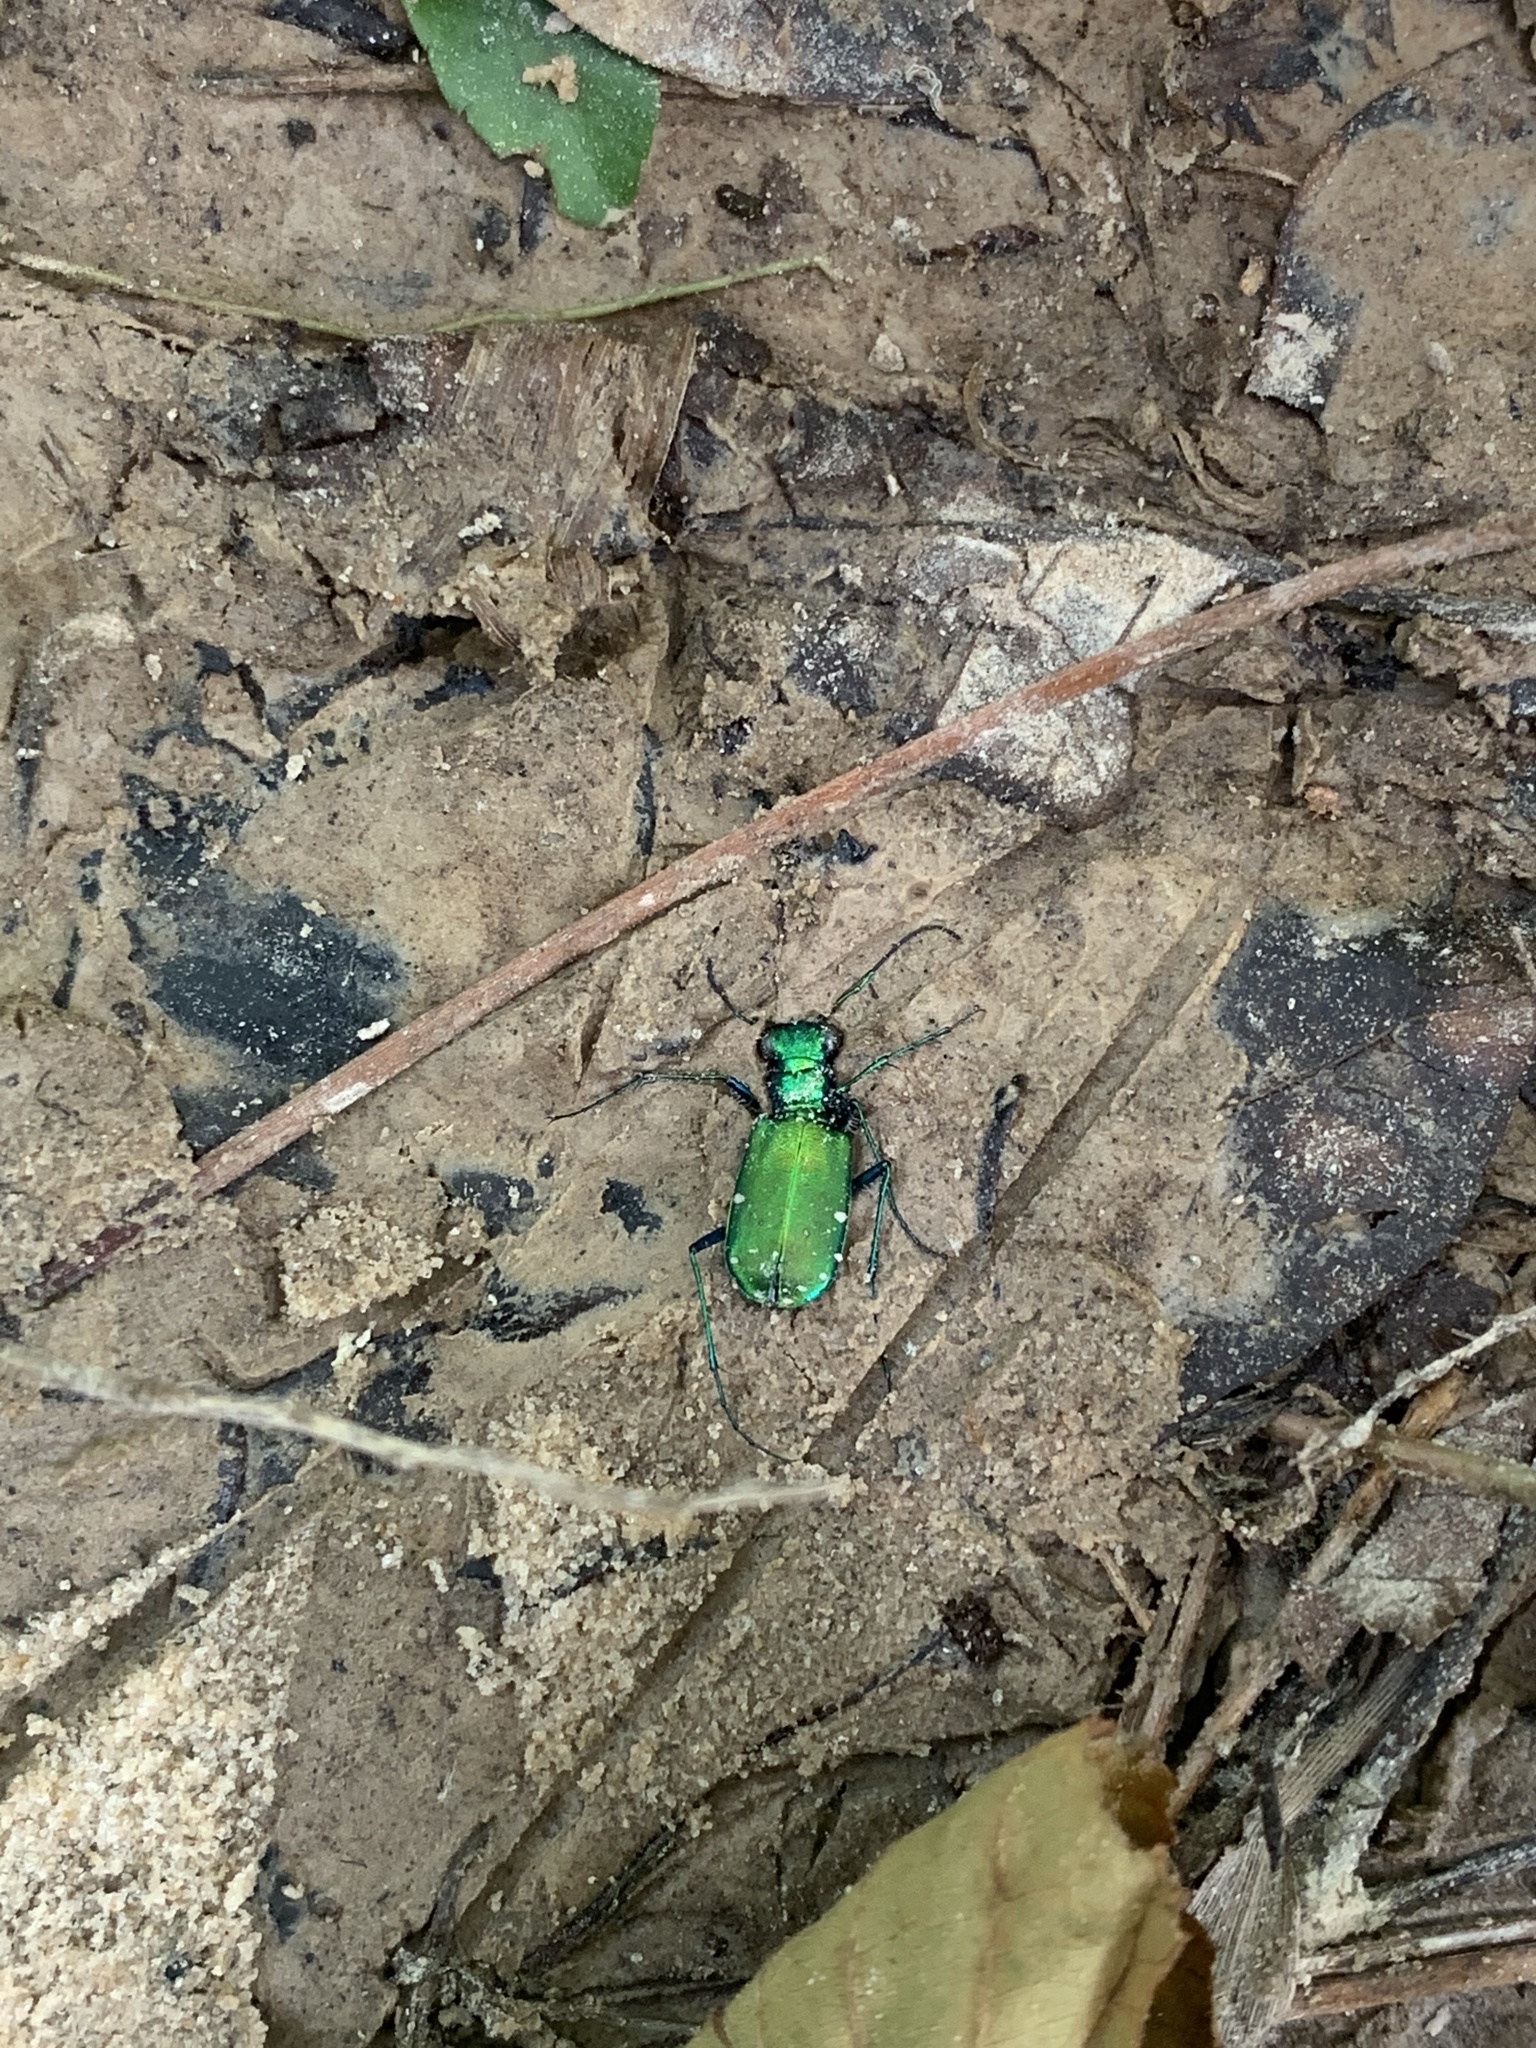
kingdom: Animalia
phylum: Arthropoda
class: Insecta
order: Coleoptera
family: Carabidae
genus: Cicindela
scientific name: Cicindela sexguttata
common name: Six-spotted tiger beetle
